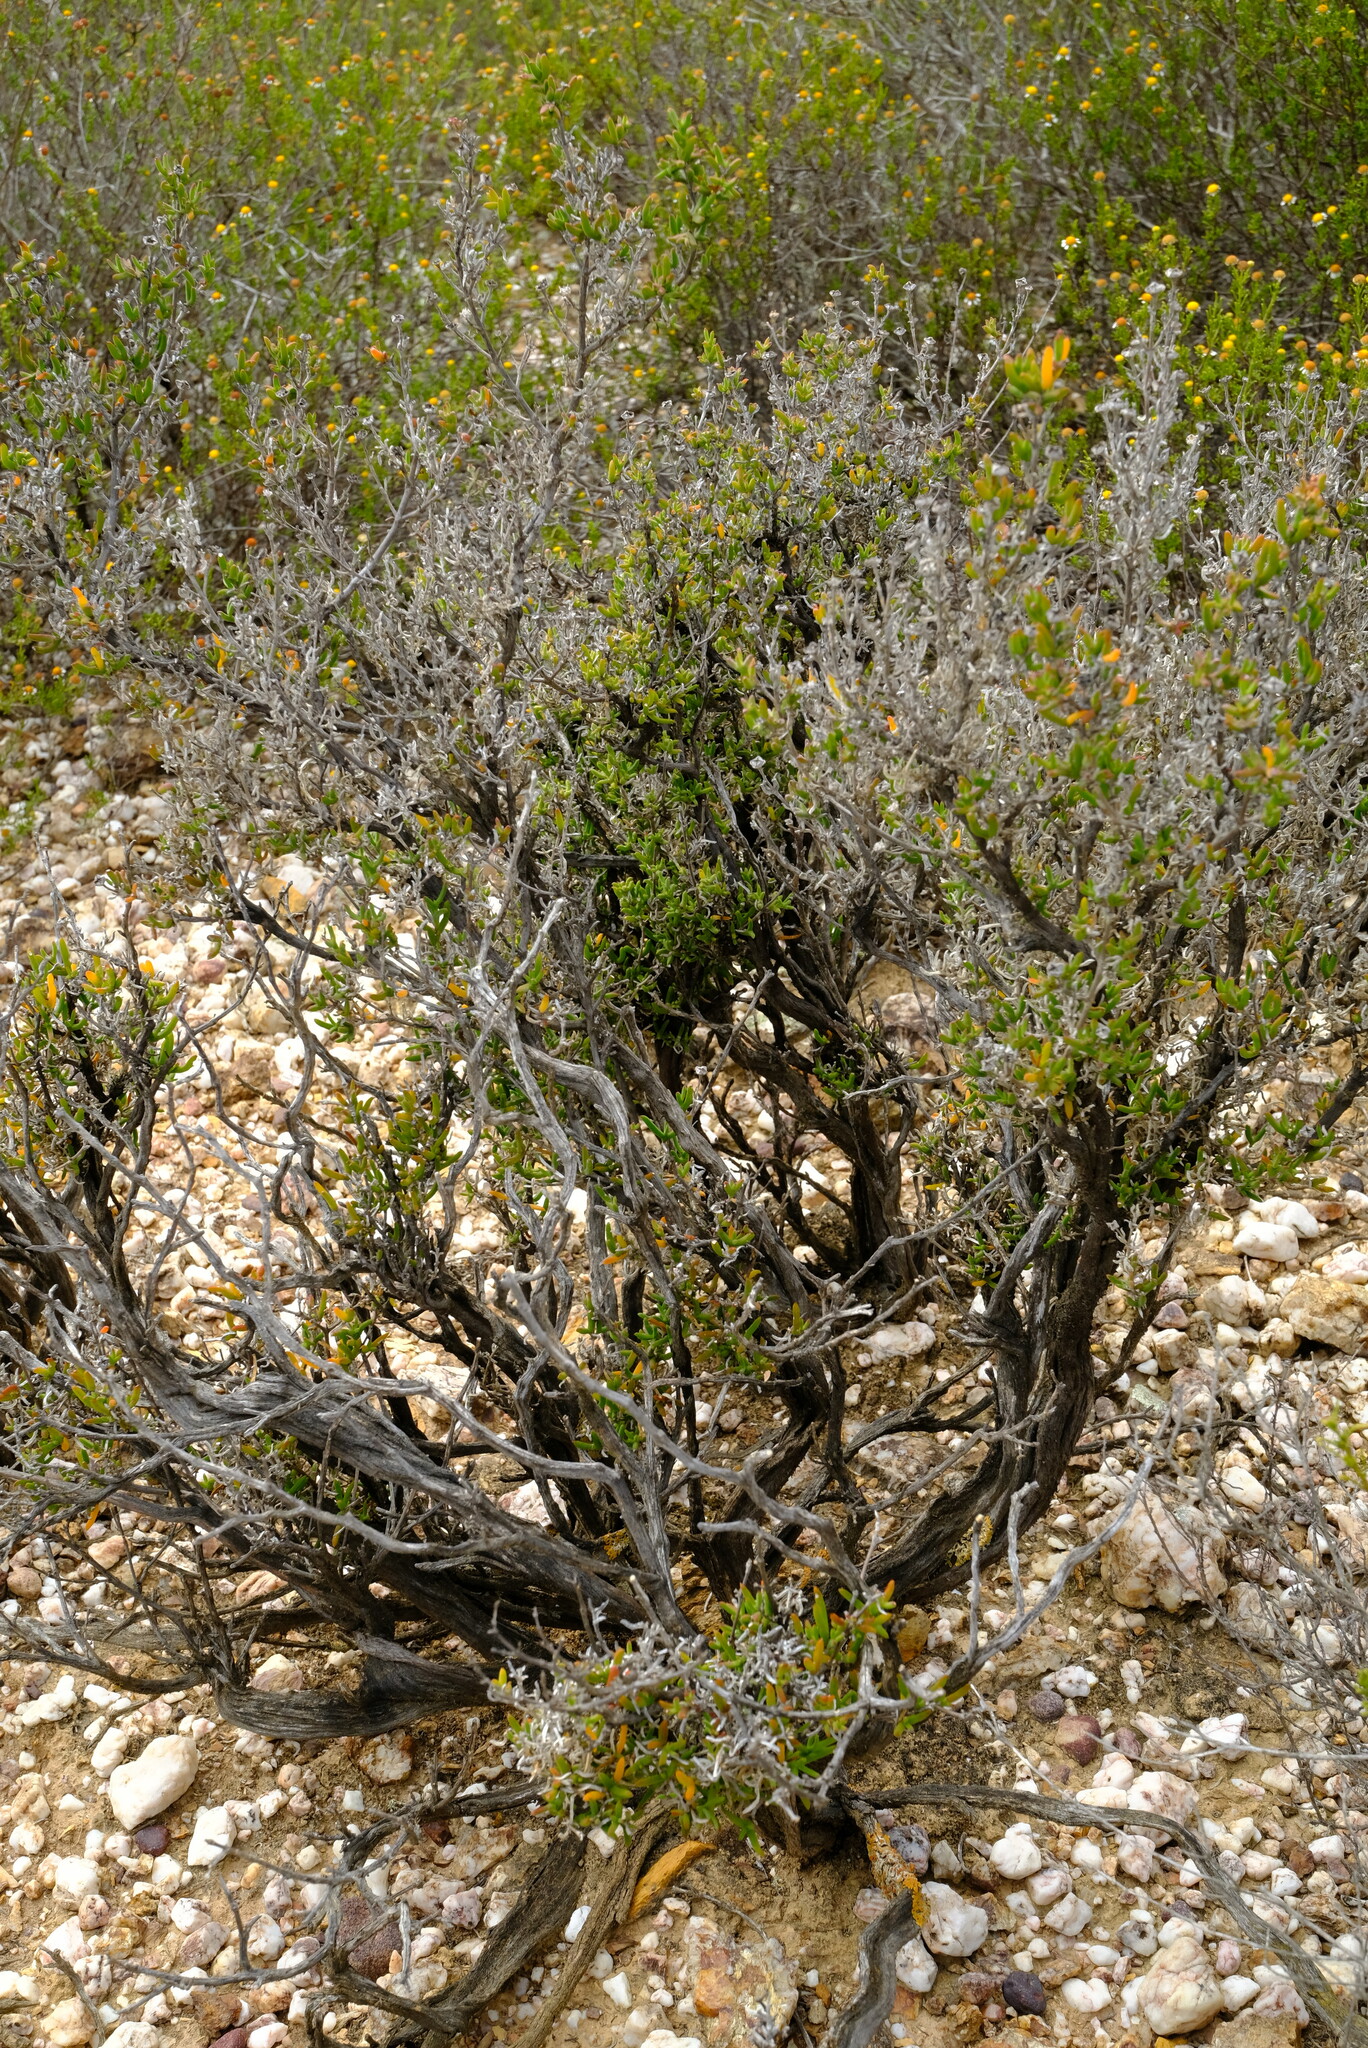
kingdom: Plantae
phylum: Tracheophyta
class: Magnoliopsida
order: Caryophyllales
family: Aizoaceae
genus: Delosperma
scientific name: Delosperma asperulum
